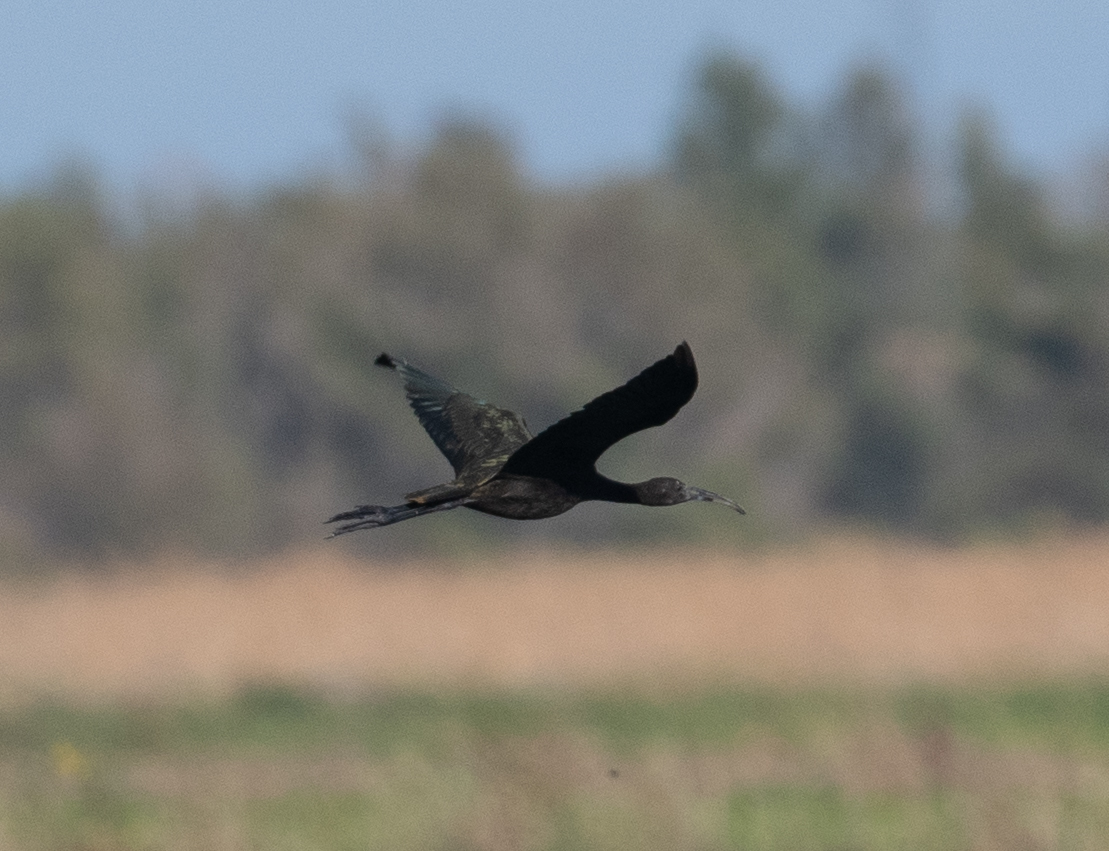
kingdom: Animalia
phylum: Chordata
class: Aves
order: Pelecaniformes
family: Threskiornithidae
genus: Plegadis
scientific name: Plegadis chihi
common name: White-faced ibis
